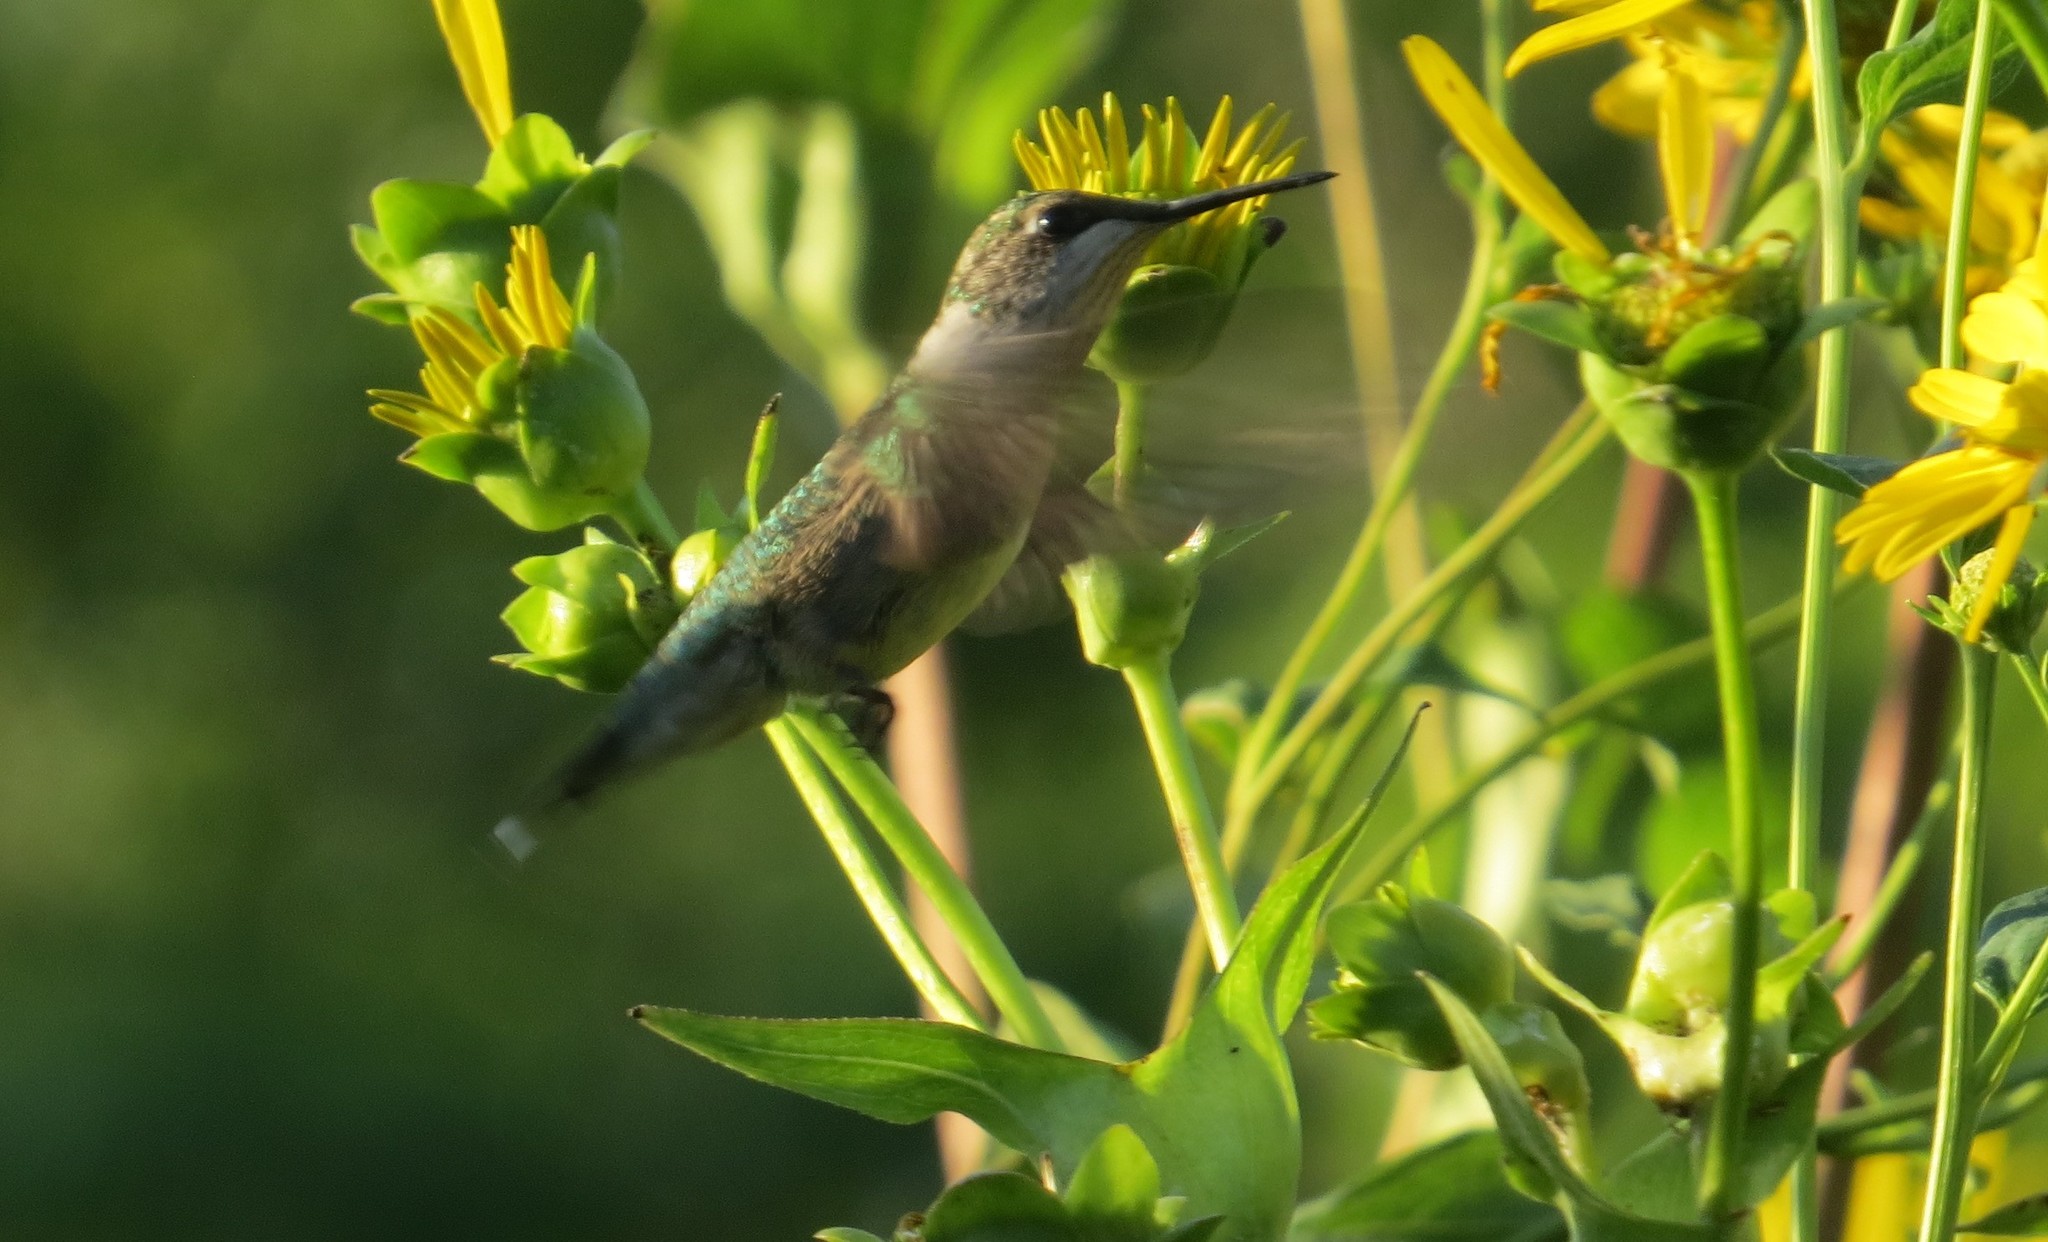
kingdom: Animalia
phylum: Chordata
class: Aves
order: Apodiformes
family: Trochilidae
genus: Archilochus
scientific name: Archilochus colubris
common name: Ruby-throated hummingbird
